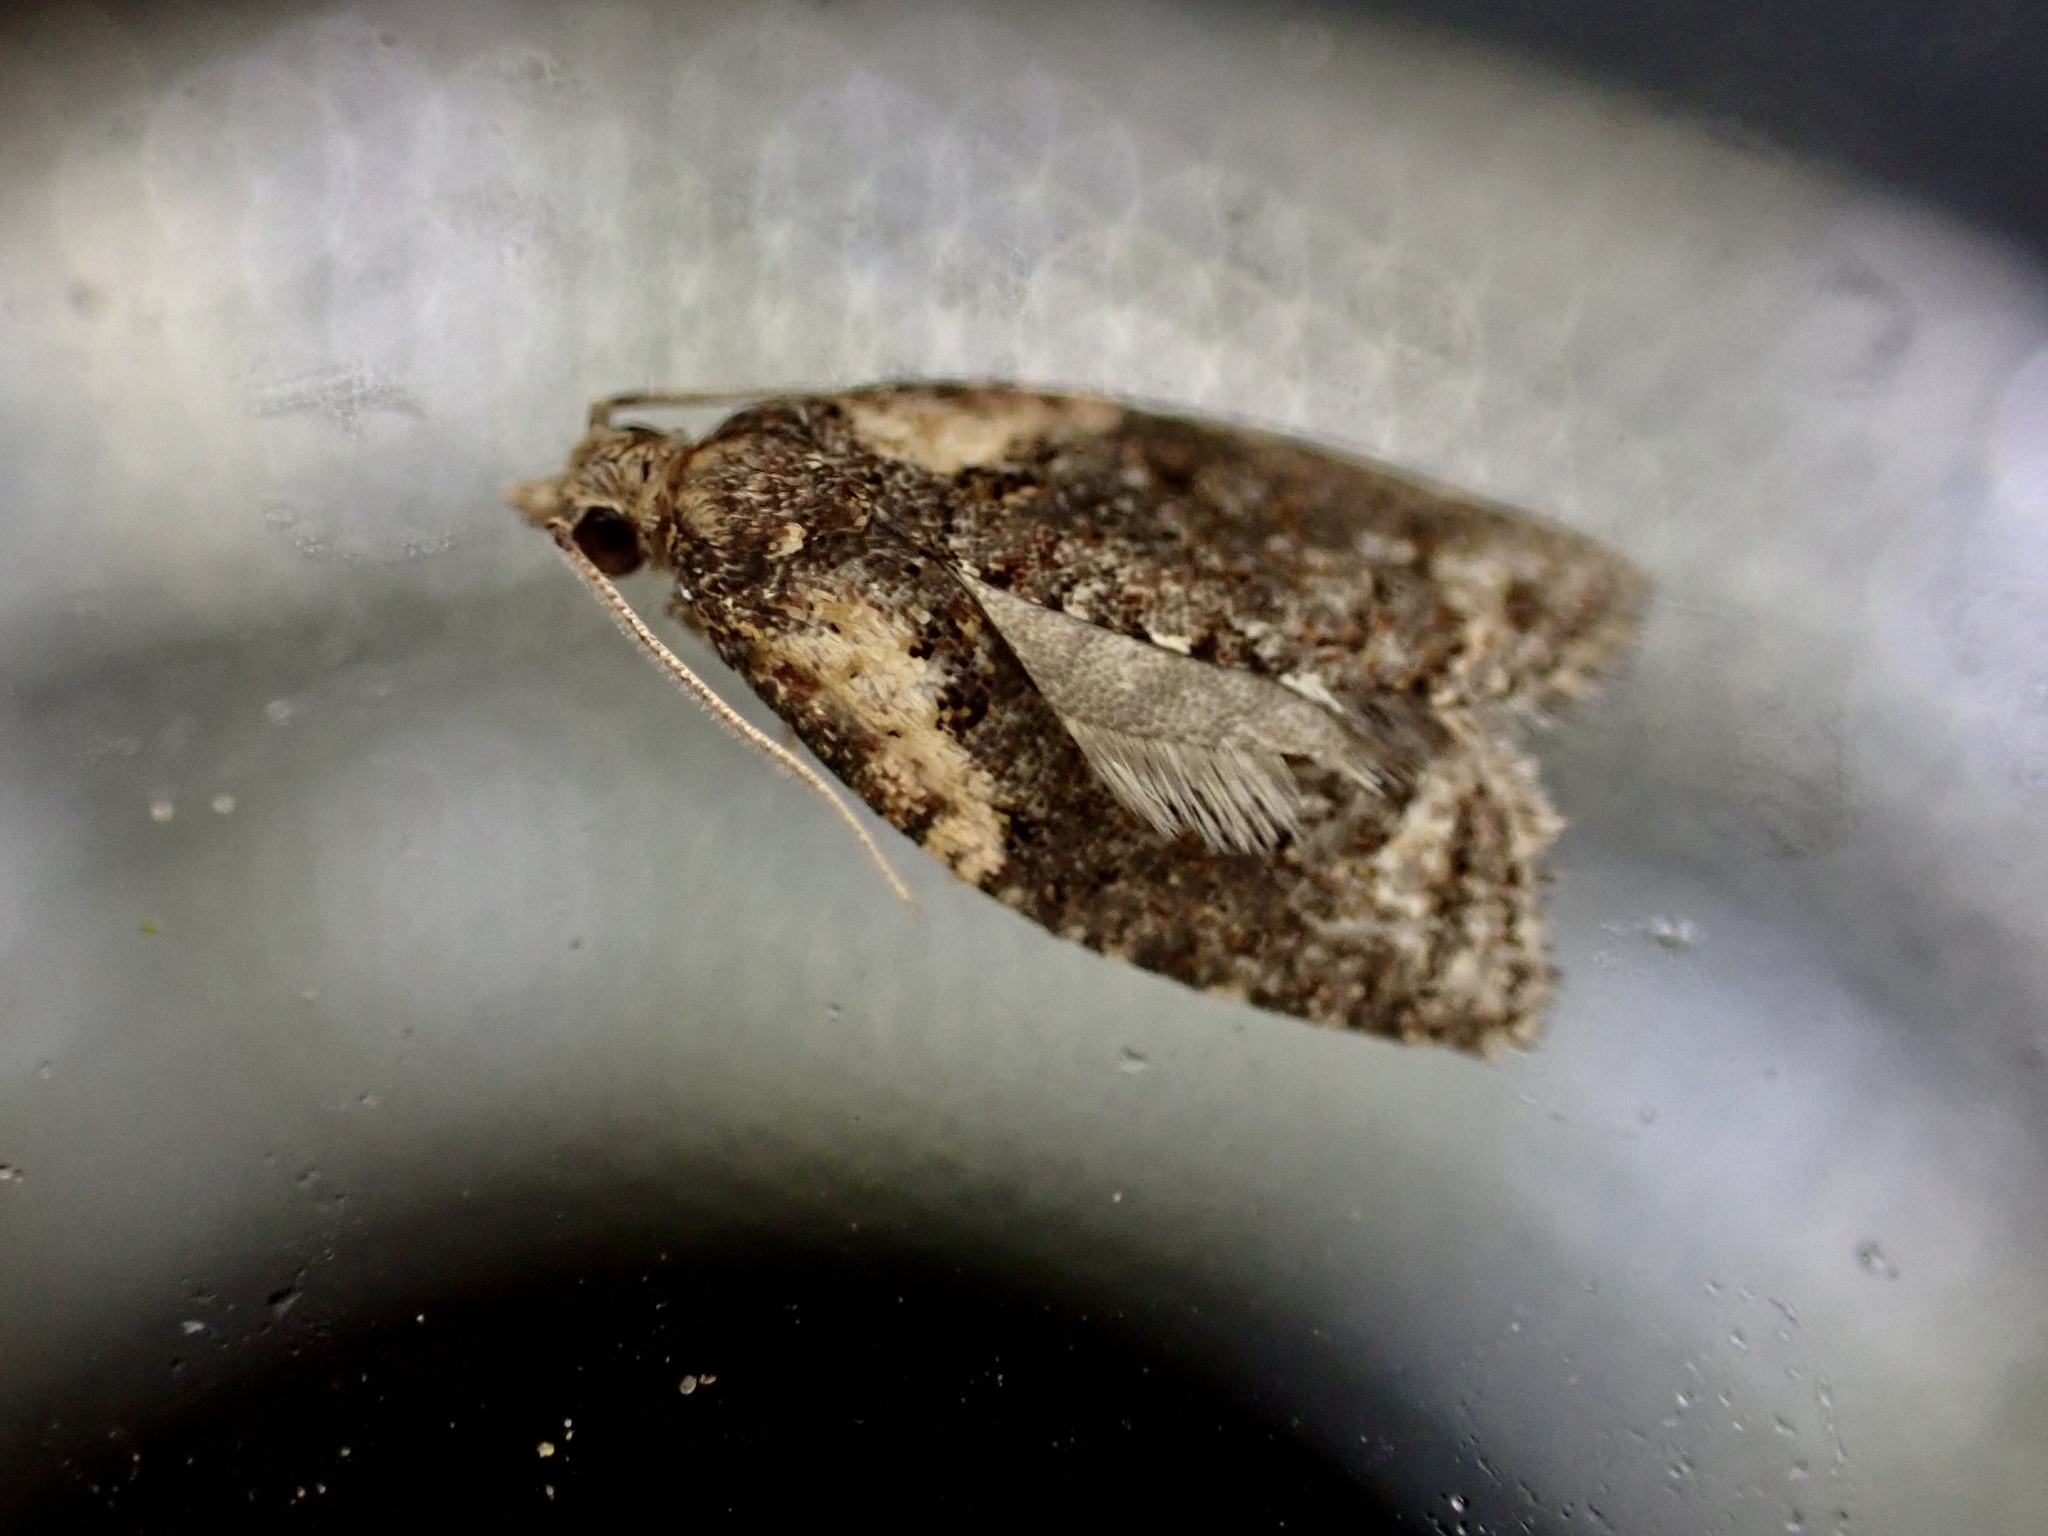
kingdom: Animalia
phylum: Arthropoda
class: Insecta
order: Lepidoptera
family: Tortricidae
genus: Capua
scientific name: Capua intractana
